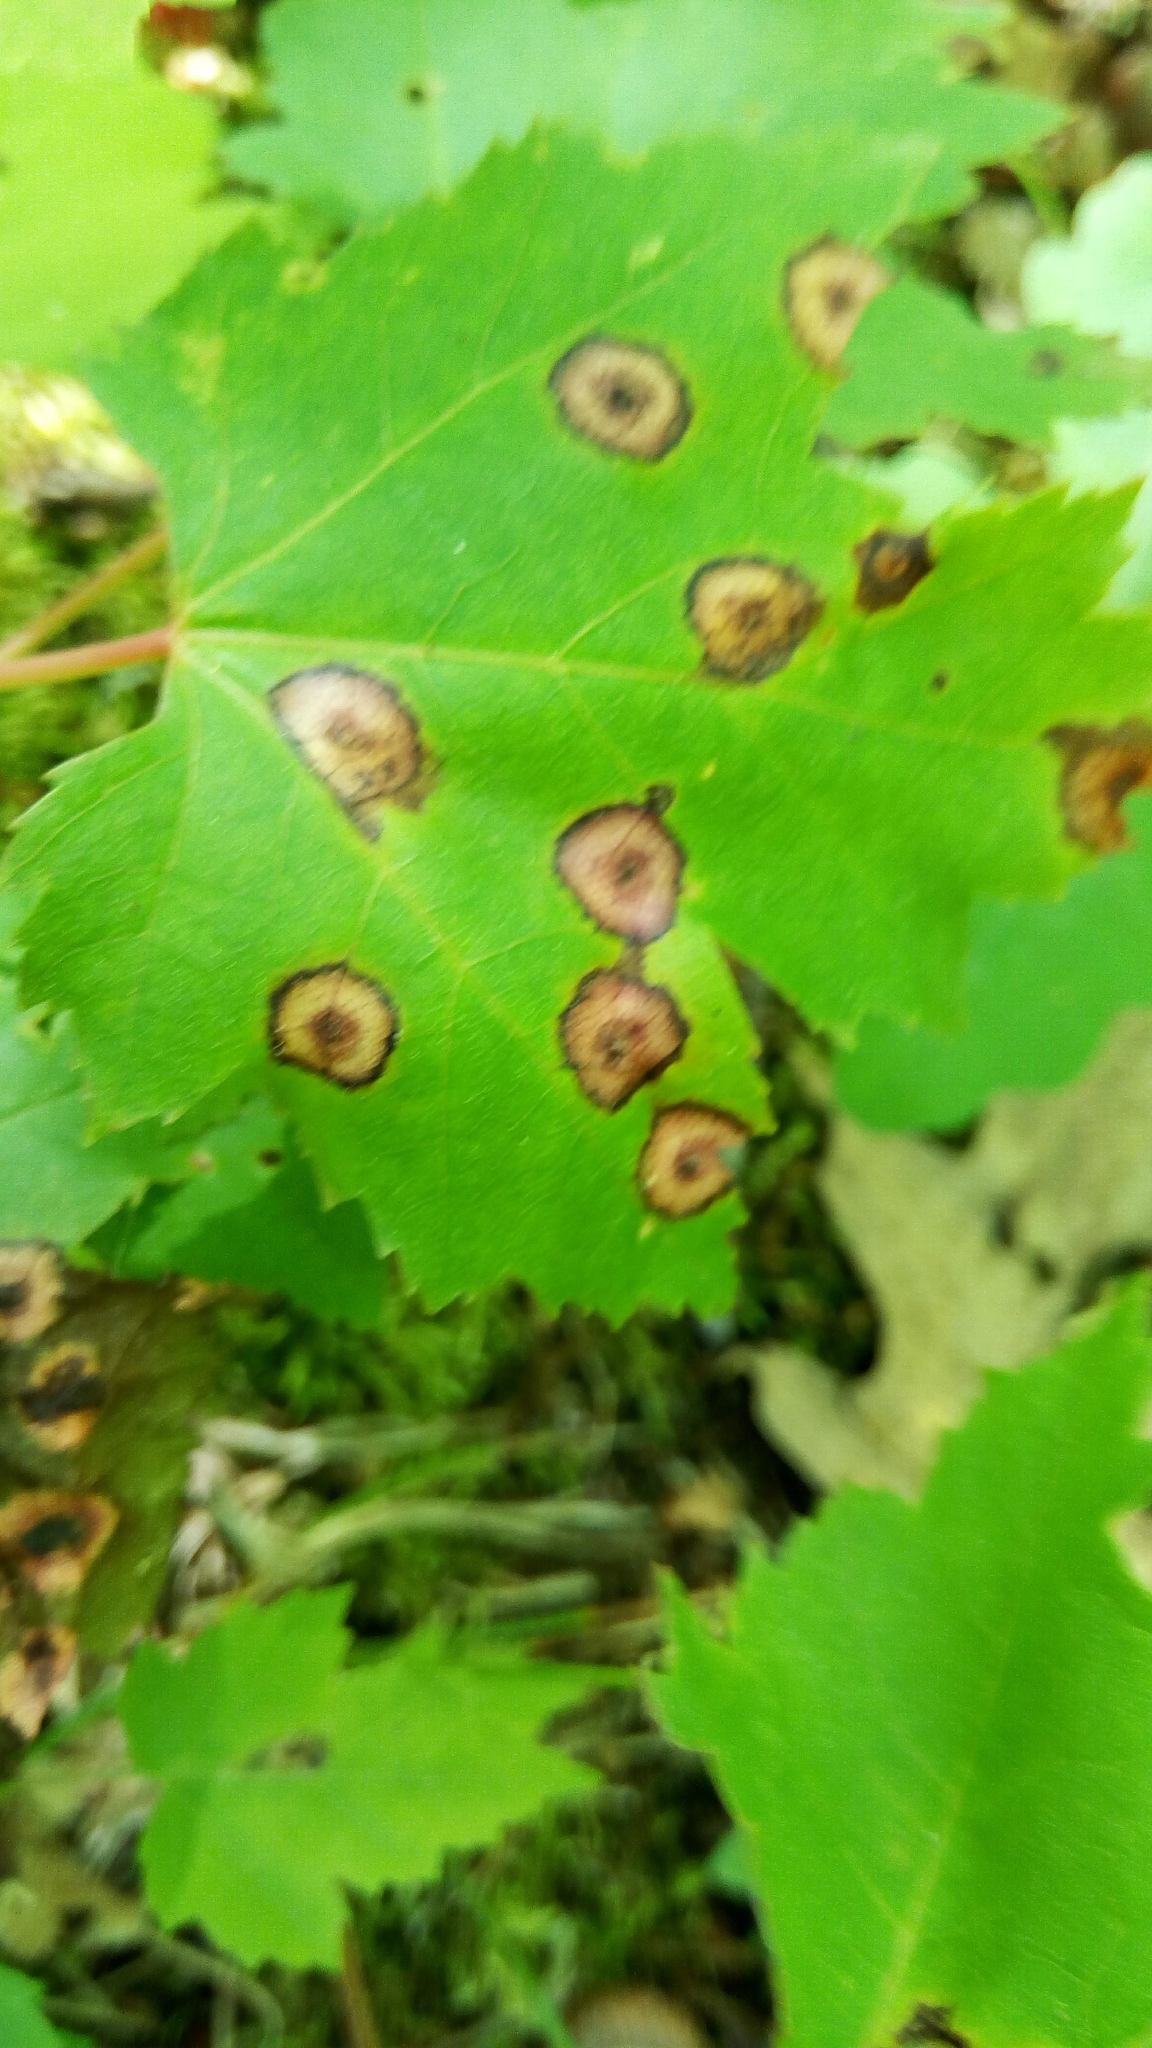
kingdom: Animalia
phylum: Arthropoda
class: Insecta
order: Diptera
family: Cecidomyiidae
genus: Acericecis
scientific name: Acericecis ocellaris
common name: Ocellate gall midge
